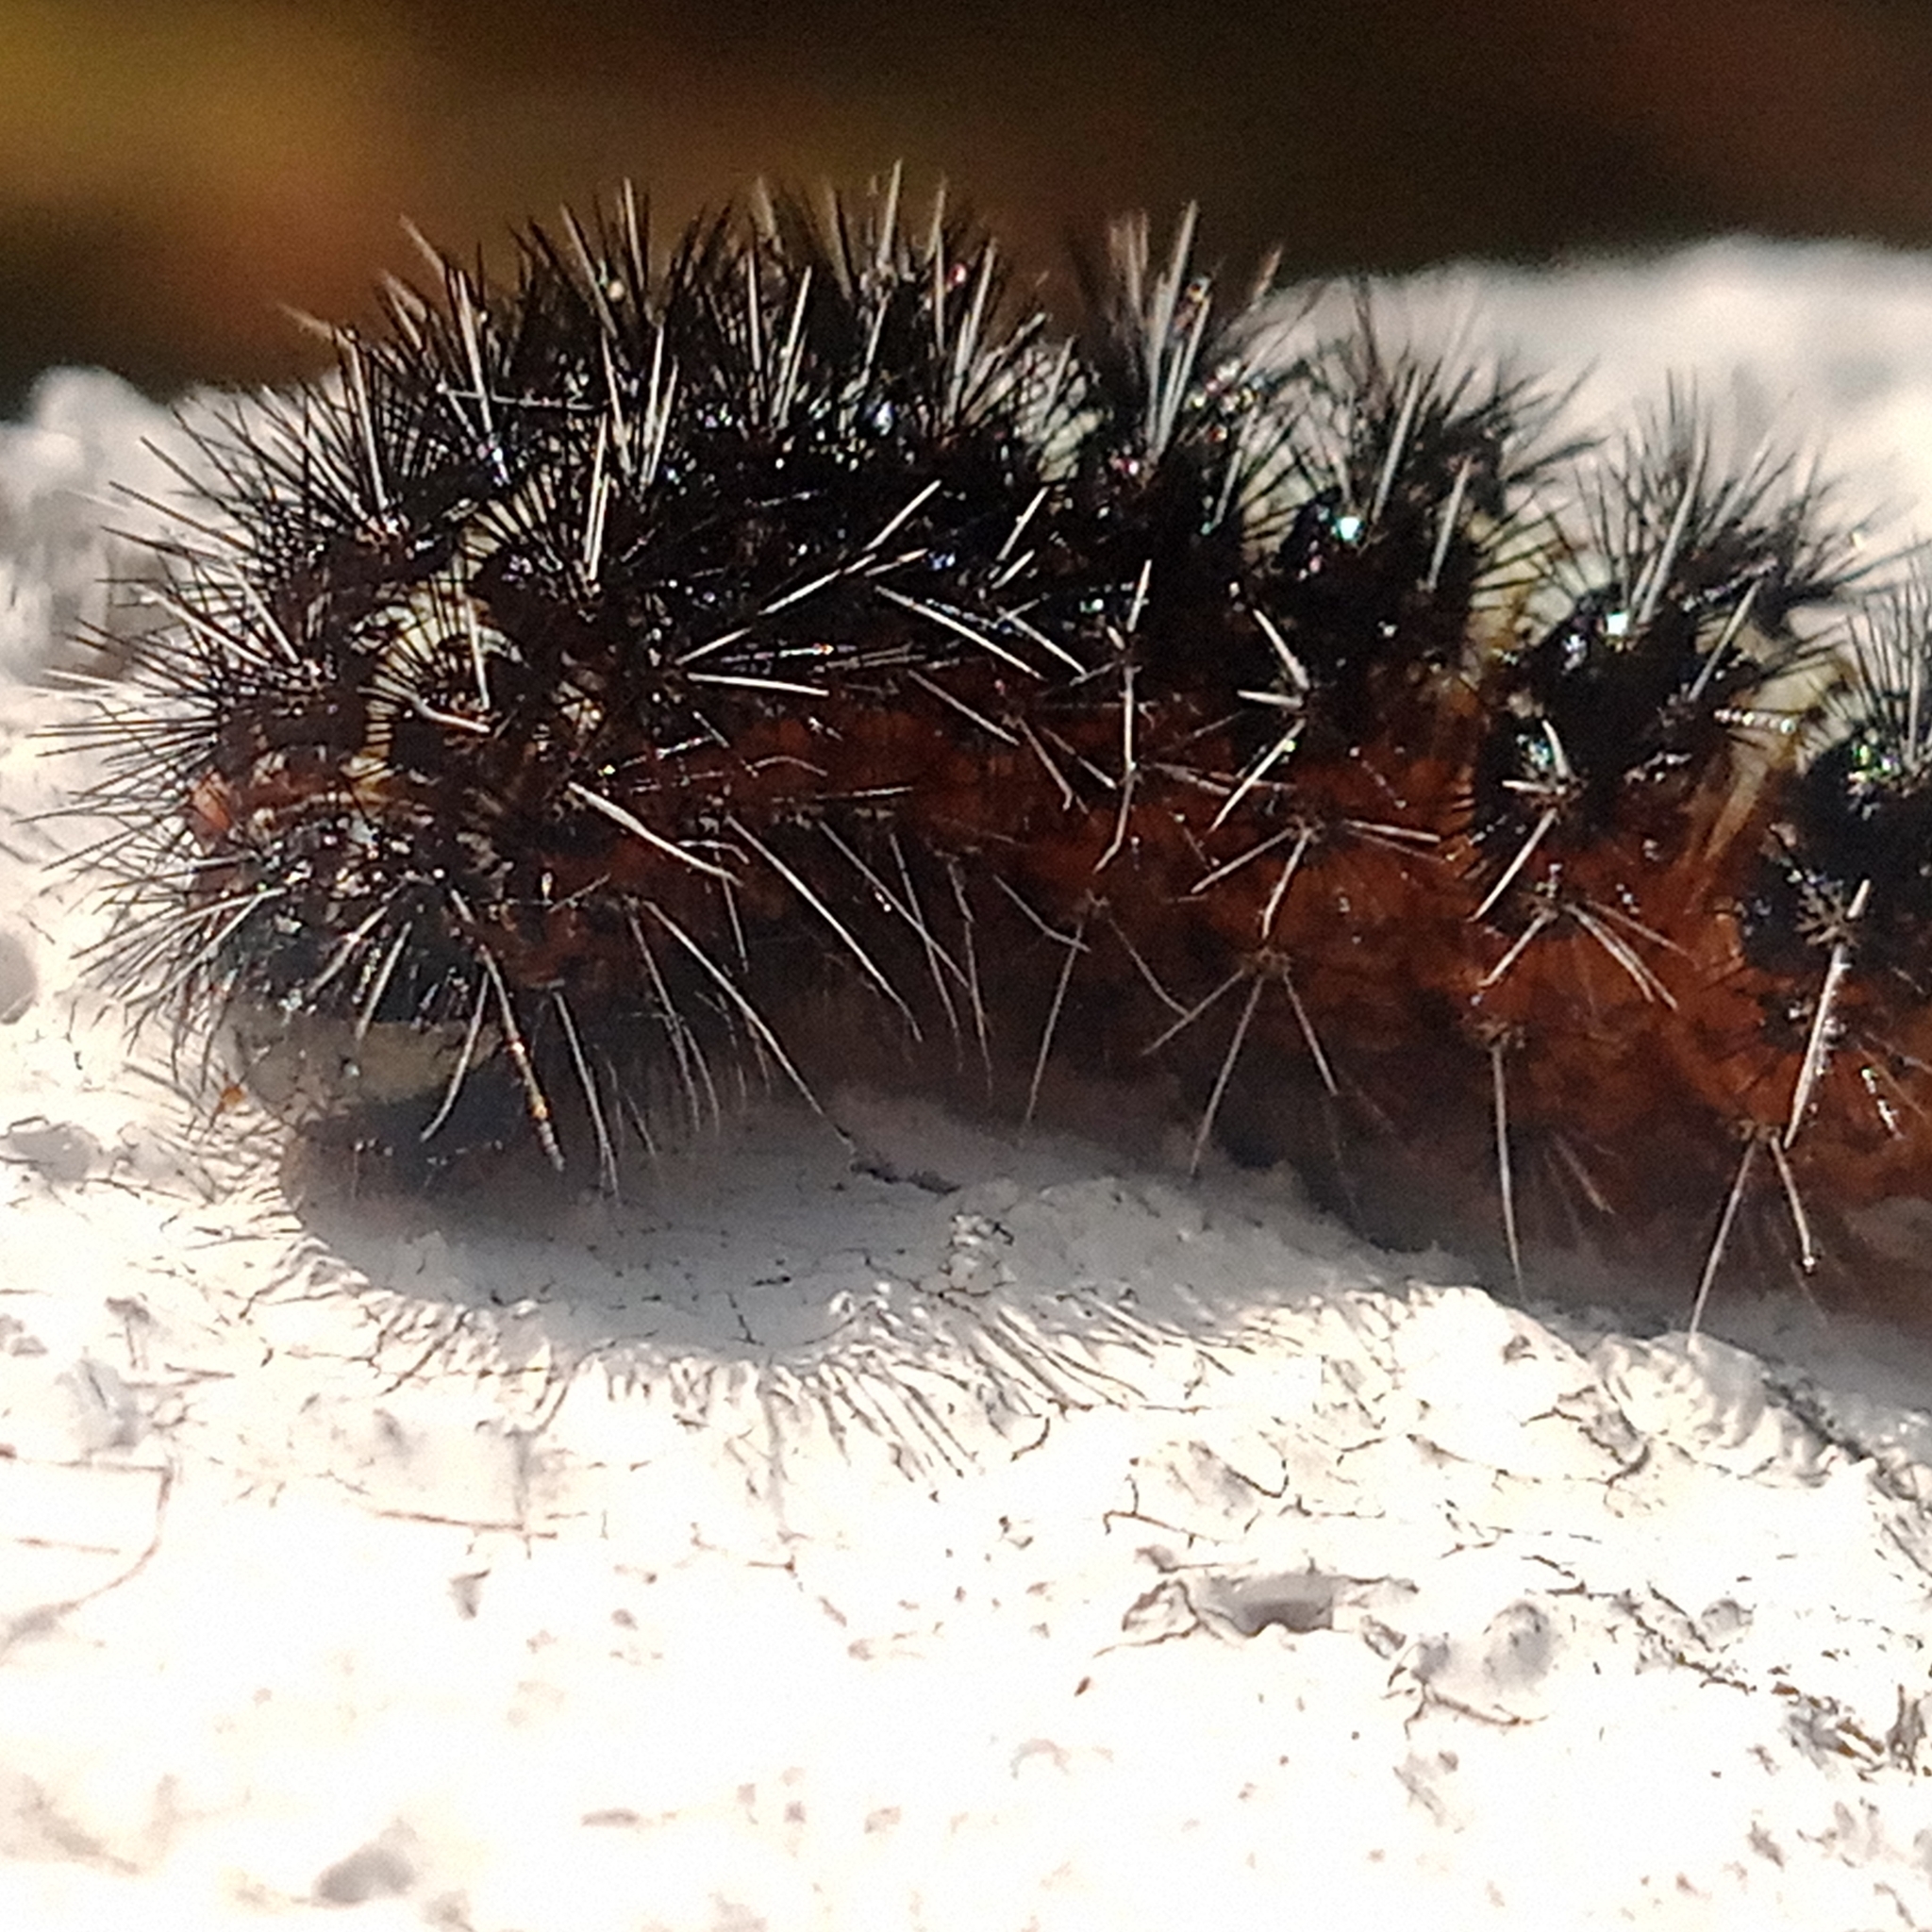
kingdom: Animalia
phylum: Arthropoda
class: Insecta
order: Lepidoptera
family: Erebidae
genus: Coscinia
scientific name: Coscinia cribraria
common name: Speckled footman
